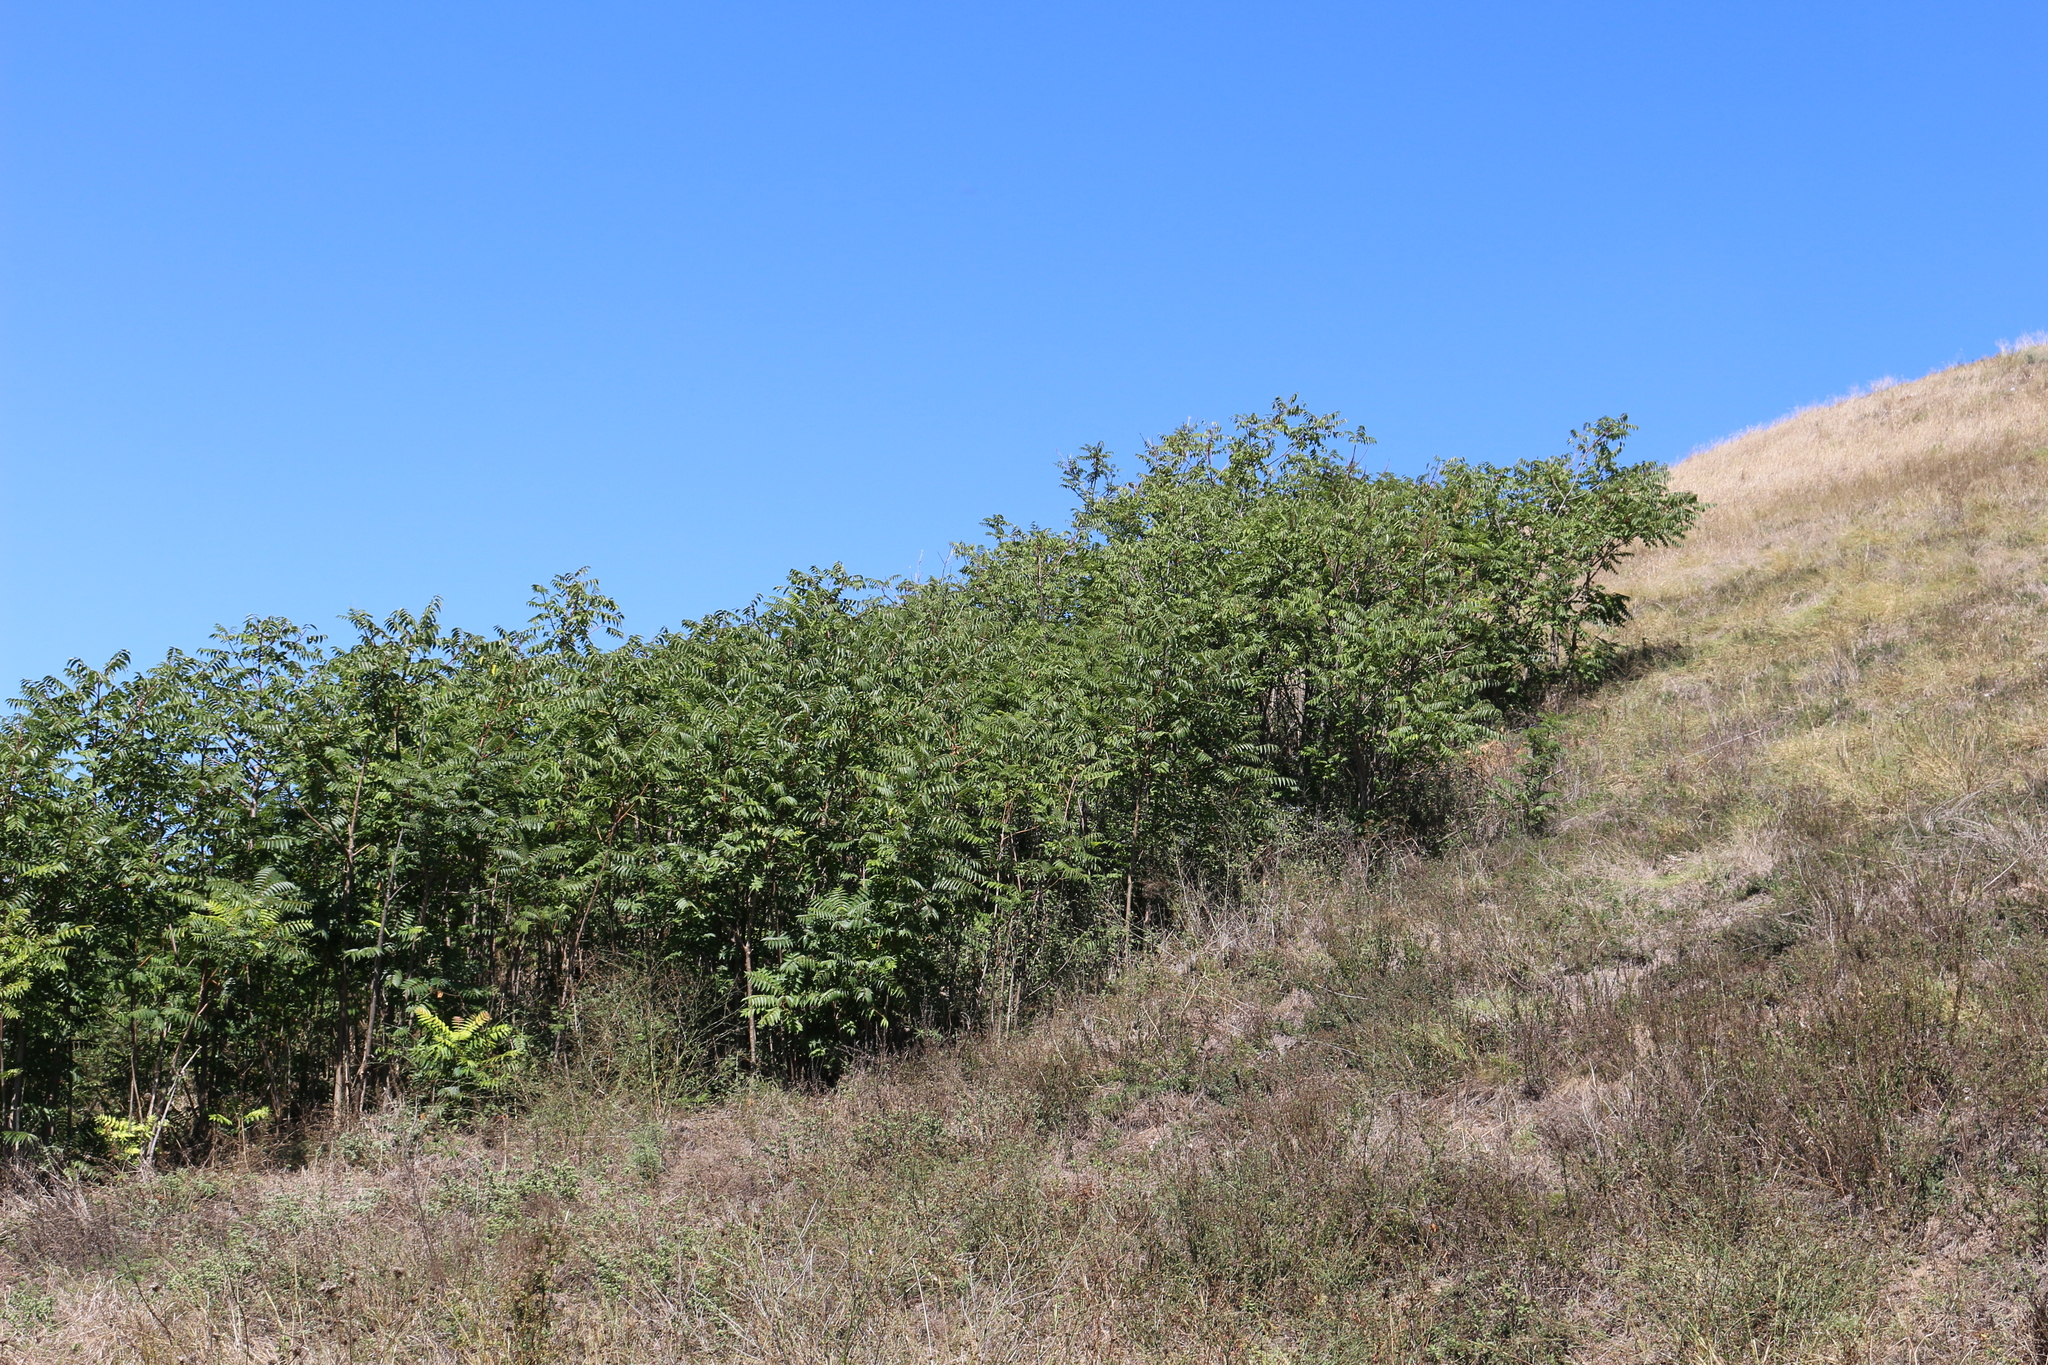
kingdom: Plantae
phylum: Tracheophyta
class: Magnoliopsida
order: Sapindales
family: Simaroubaceae
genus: Ailanthus
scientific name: Ailanthus altissima
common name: Tree-of-heaven
